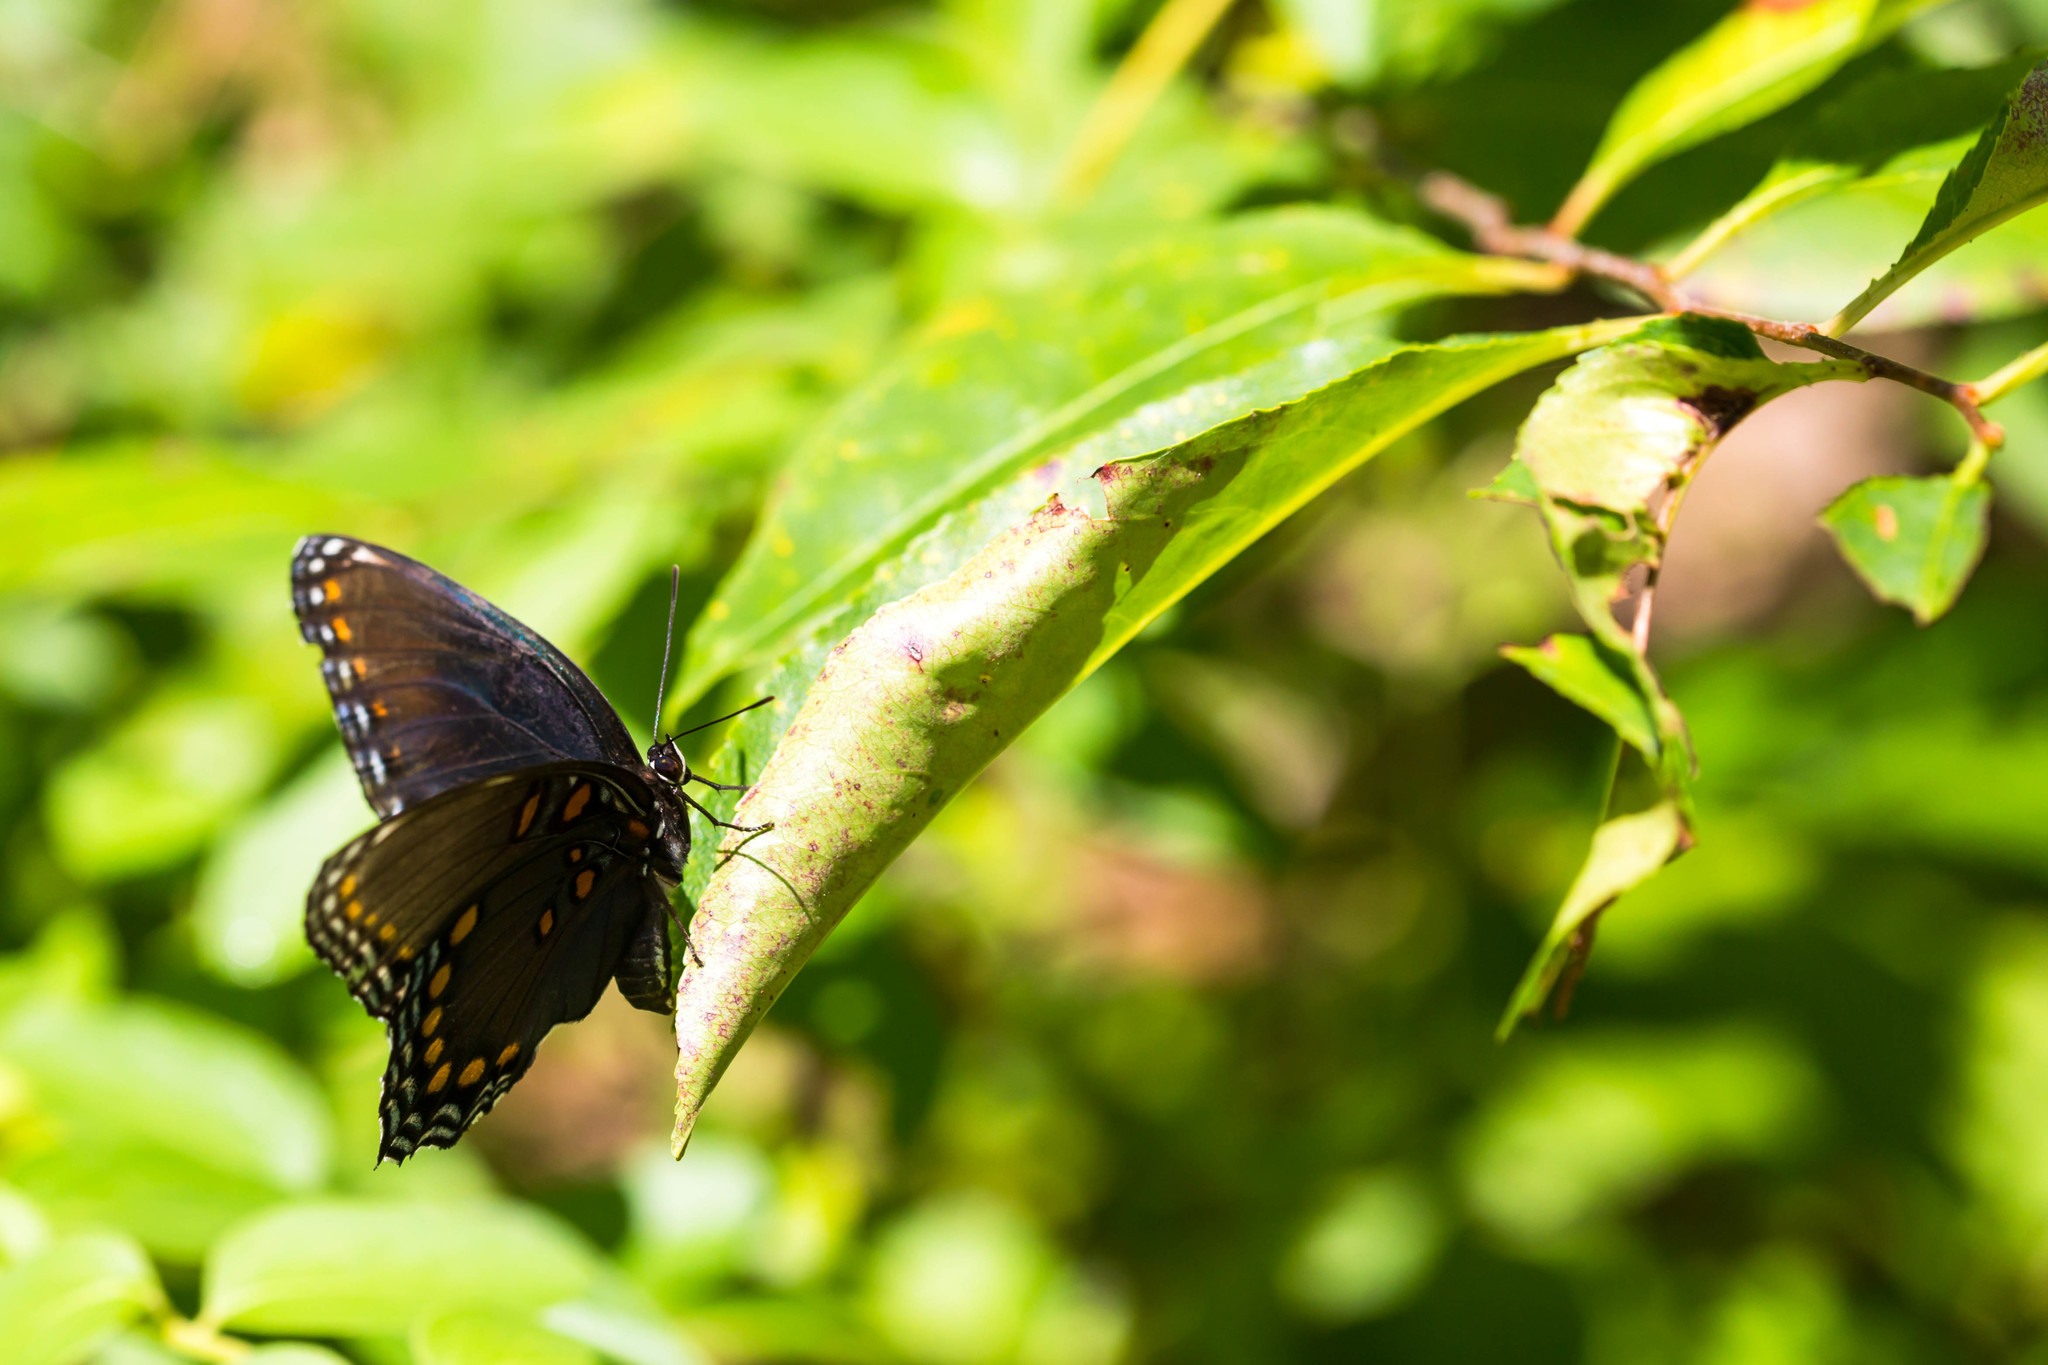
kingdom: Animalia
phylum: Arthropoda
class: Insecta
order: Lepidoptera
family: Nymphalidae
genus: Limenitis
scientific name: Limenitis astyanax
